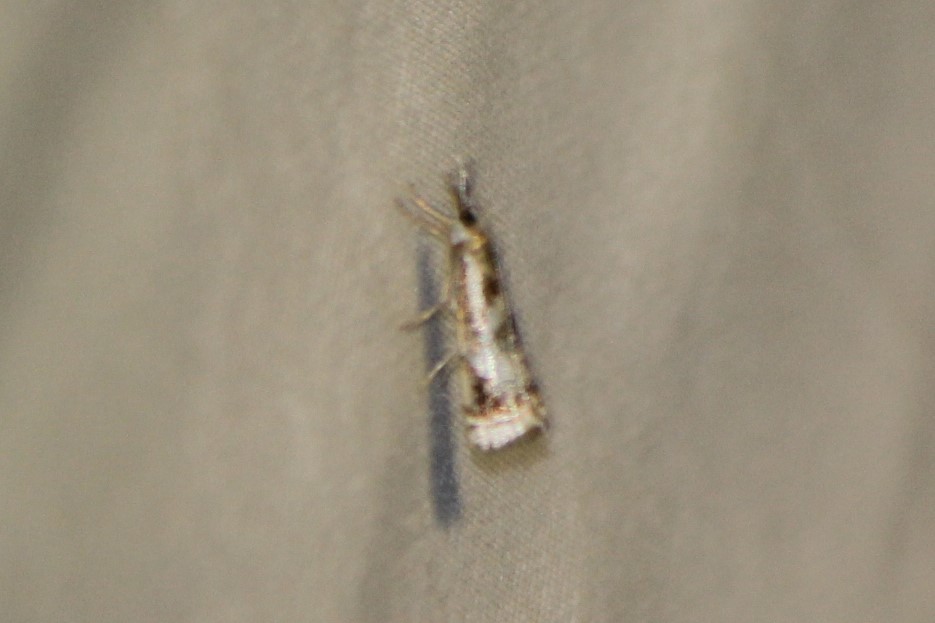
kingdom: Animalia
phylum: Arthropoda
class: Insecta
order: Lepidoptera
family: Crambidae
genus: Microcrambus
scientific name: Microcrambus elegans
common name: Elegant grass-veneer
